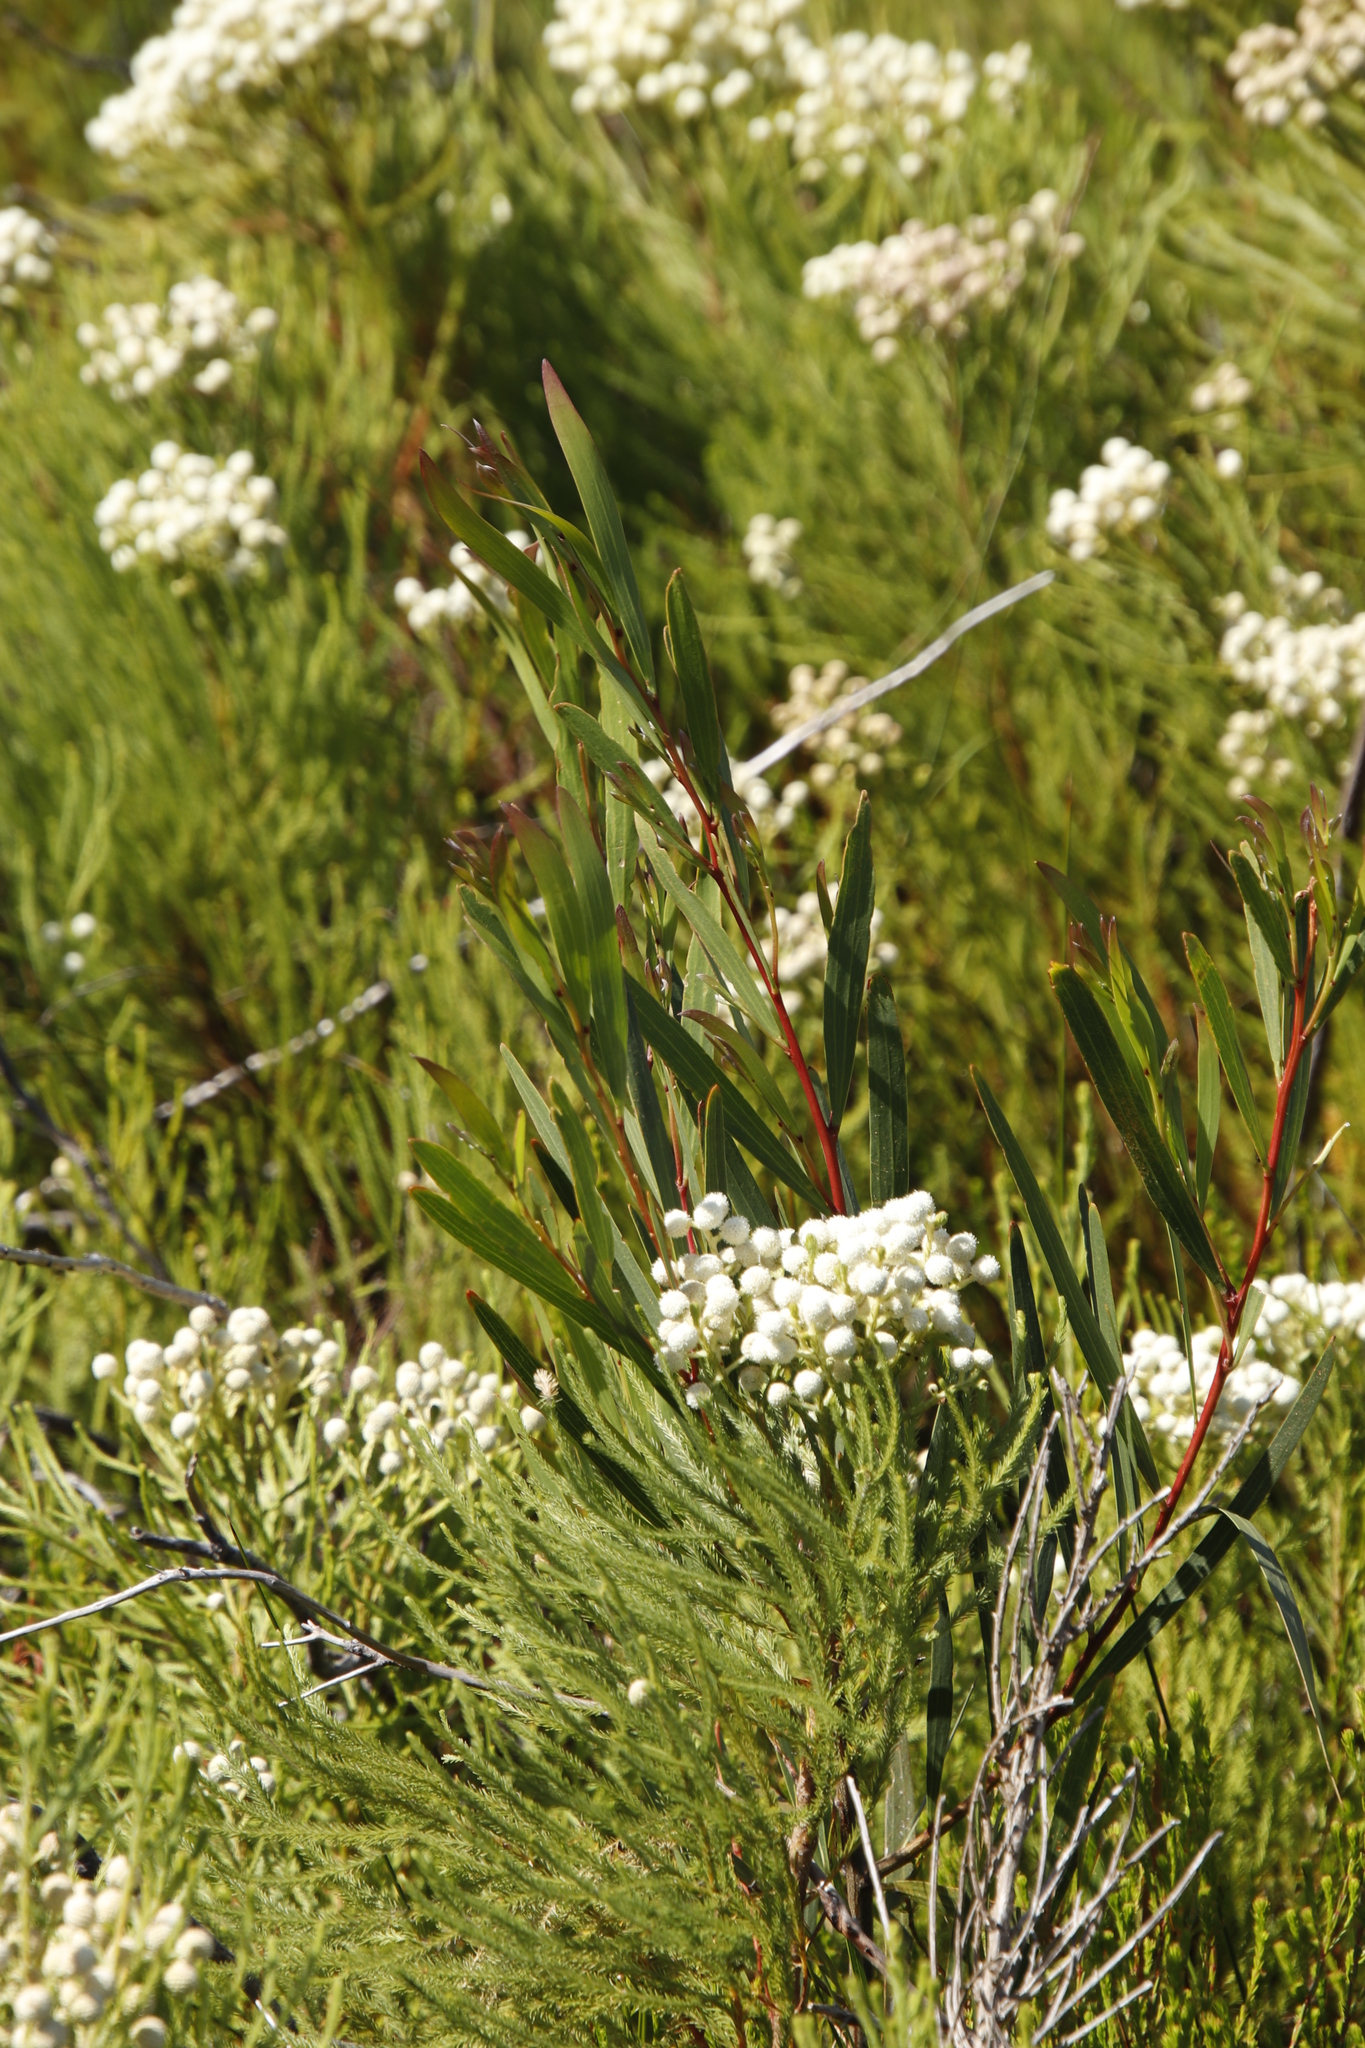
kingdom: Plantae
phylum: Tracheophyta
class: Magnoliopsida
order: Fabales
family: Fabaceae
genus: Acacia
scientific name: Acacia longifolia
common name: Sydney golden wattle
